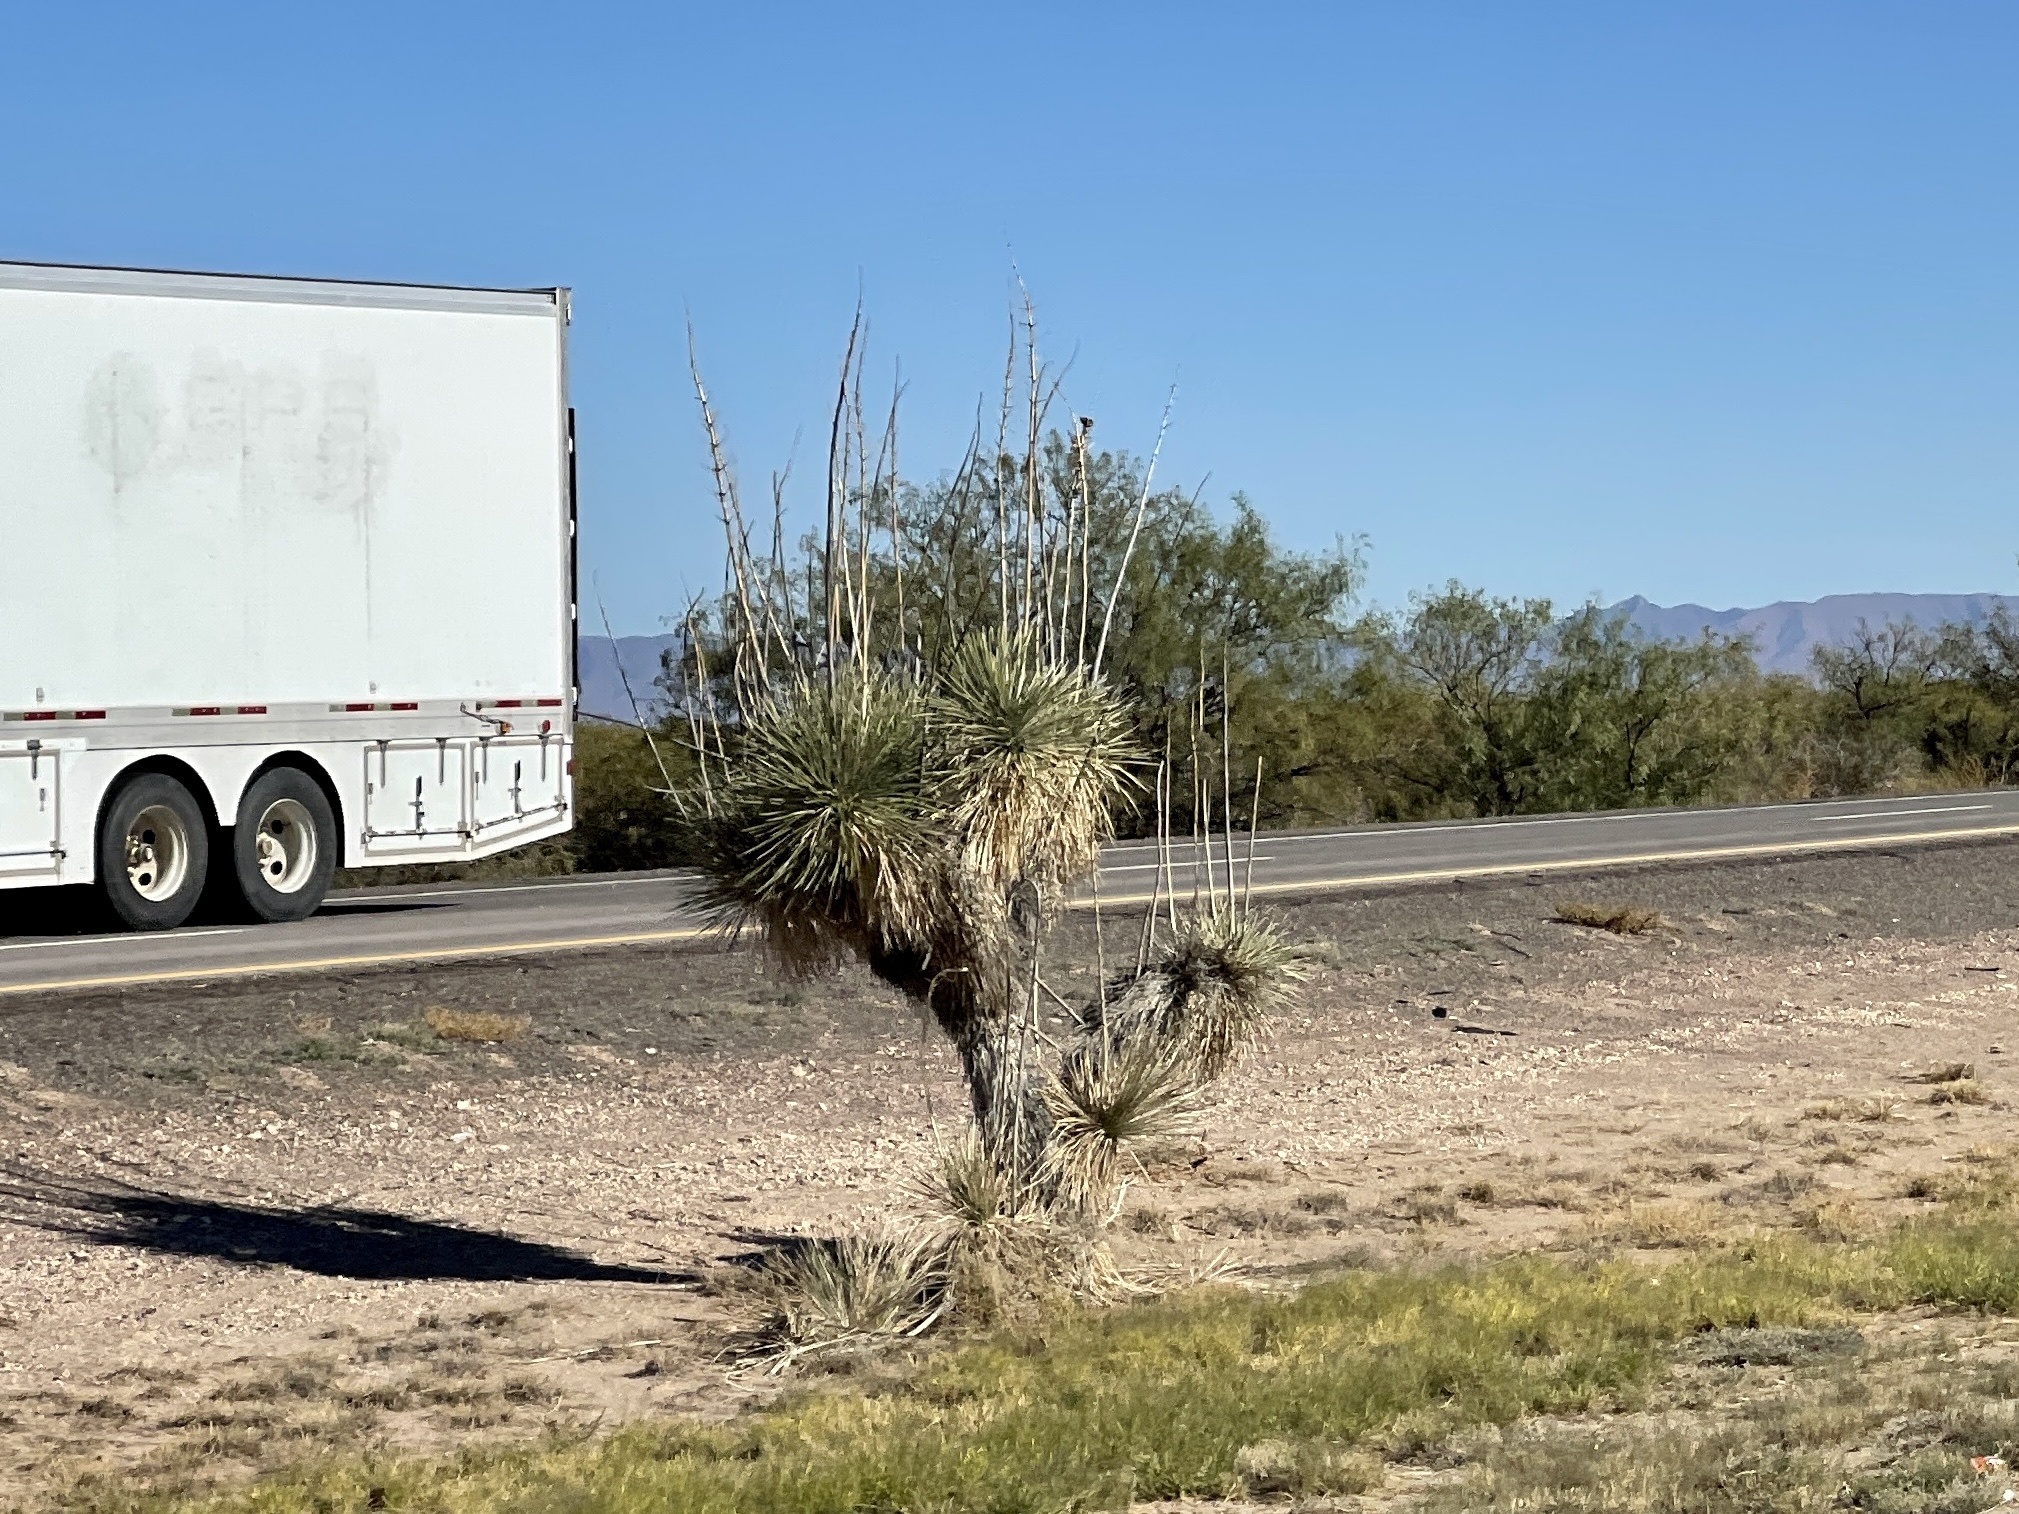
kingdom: Plantae
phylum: Tracheophyta
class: Liliopsida
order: Asparagales
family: Asparagaceae
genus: Yucca
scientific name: Yucca elata
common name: Palmella
